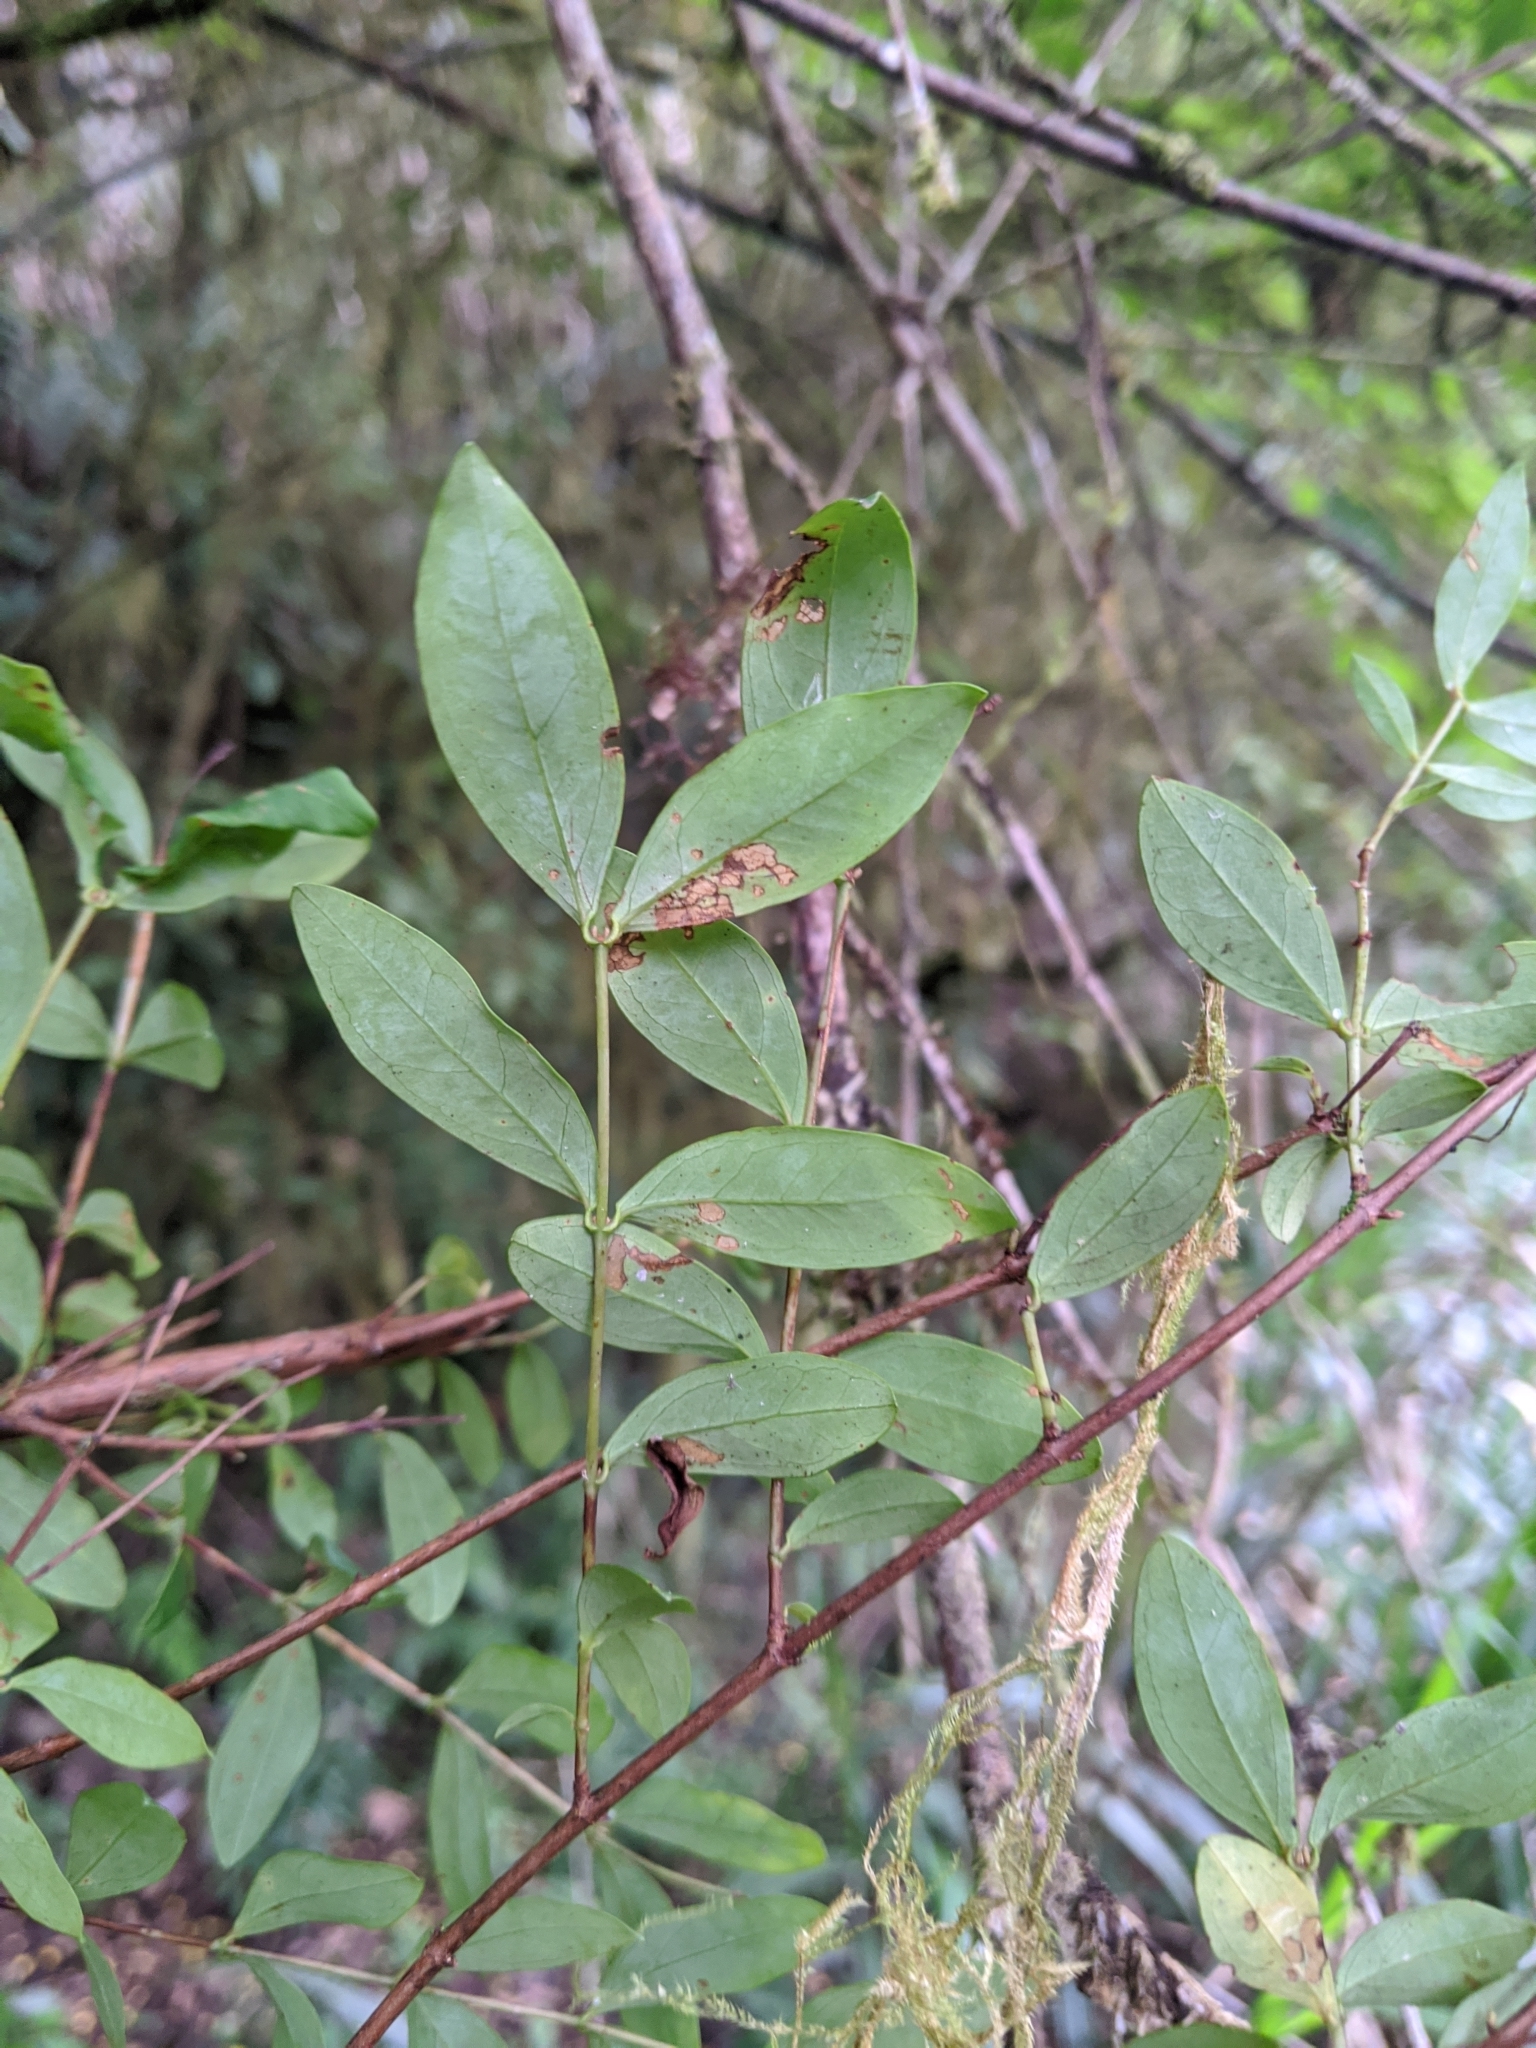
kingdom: Plantae
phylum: Tracheophyta
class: Magnoliopsida
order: Malpighiales
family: Hypericaceae
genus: Hypericum
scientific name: Hypericum geminiflorum
